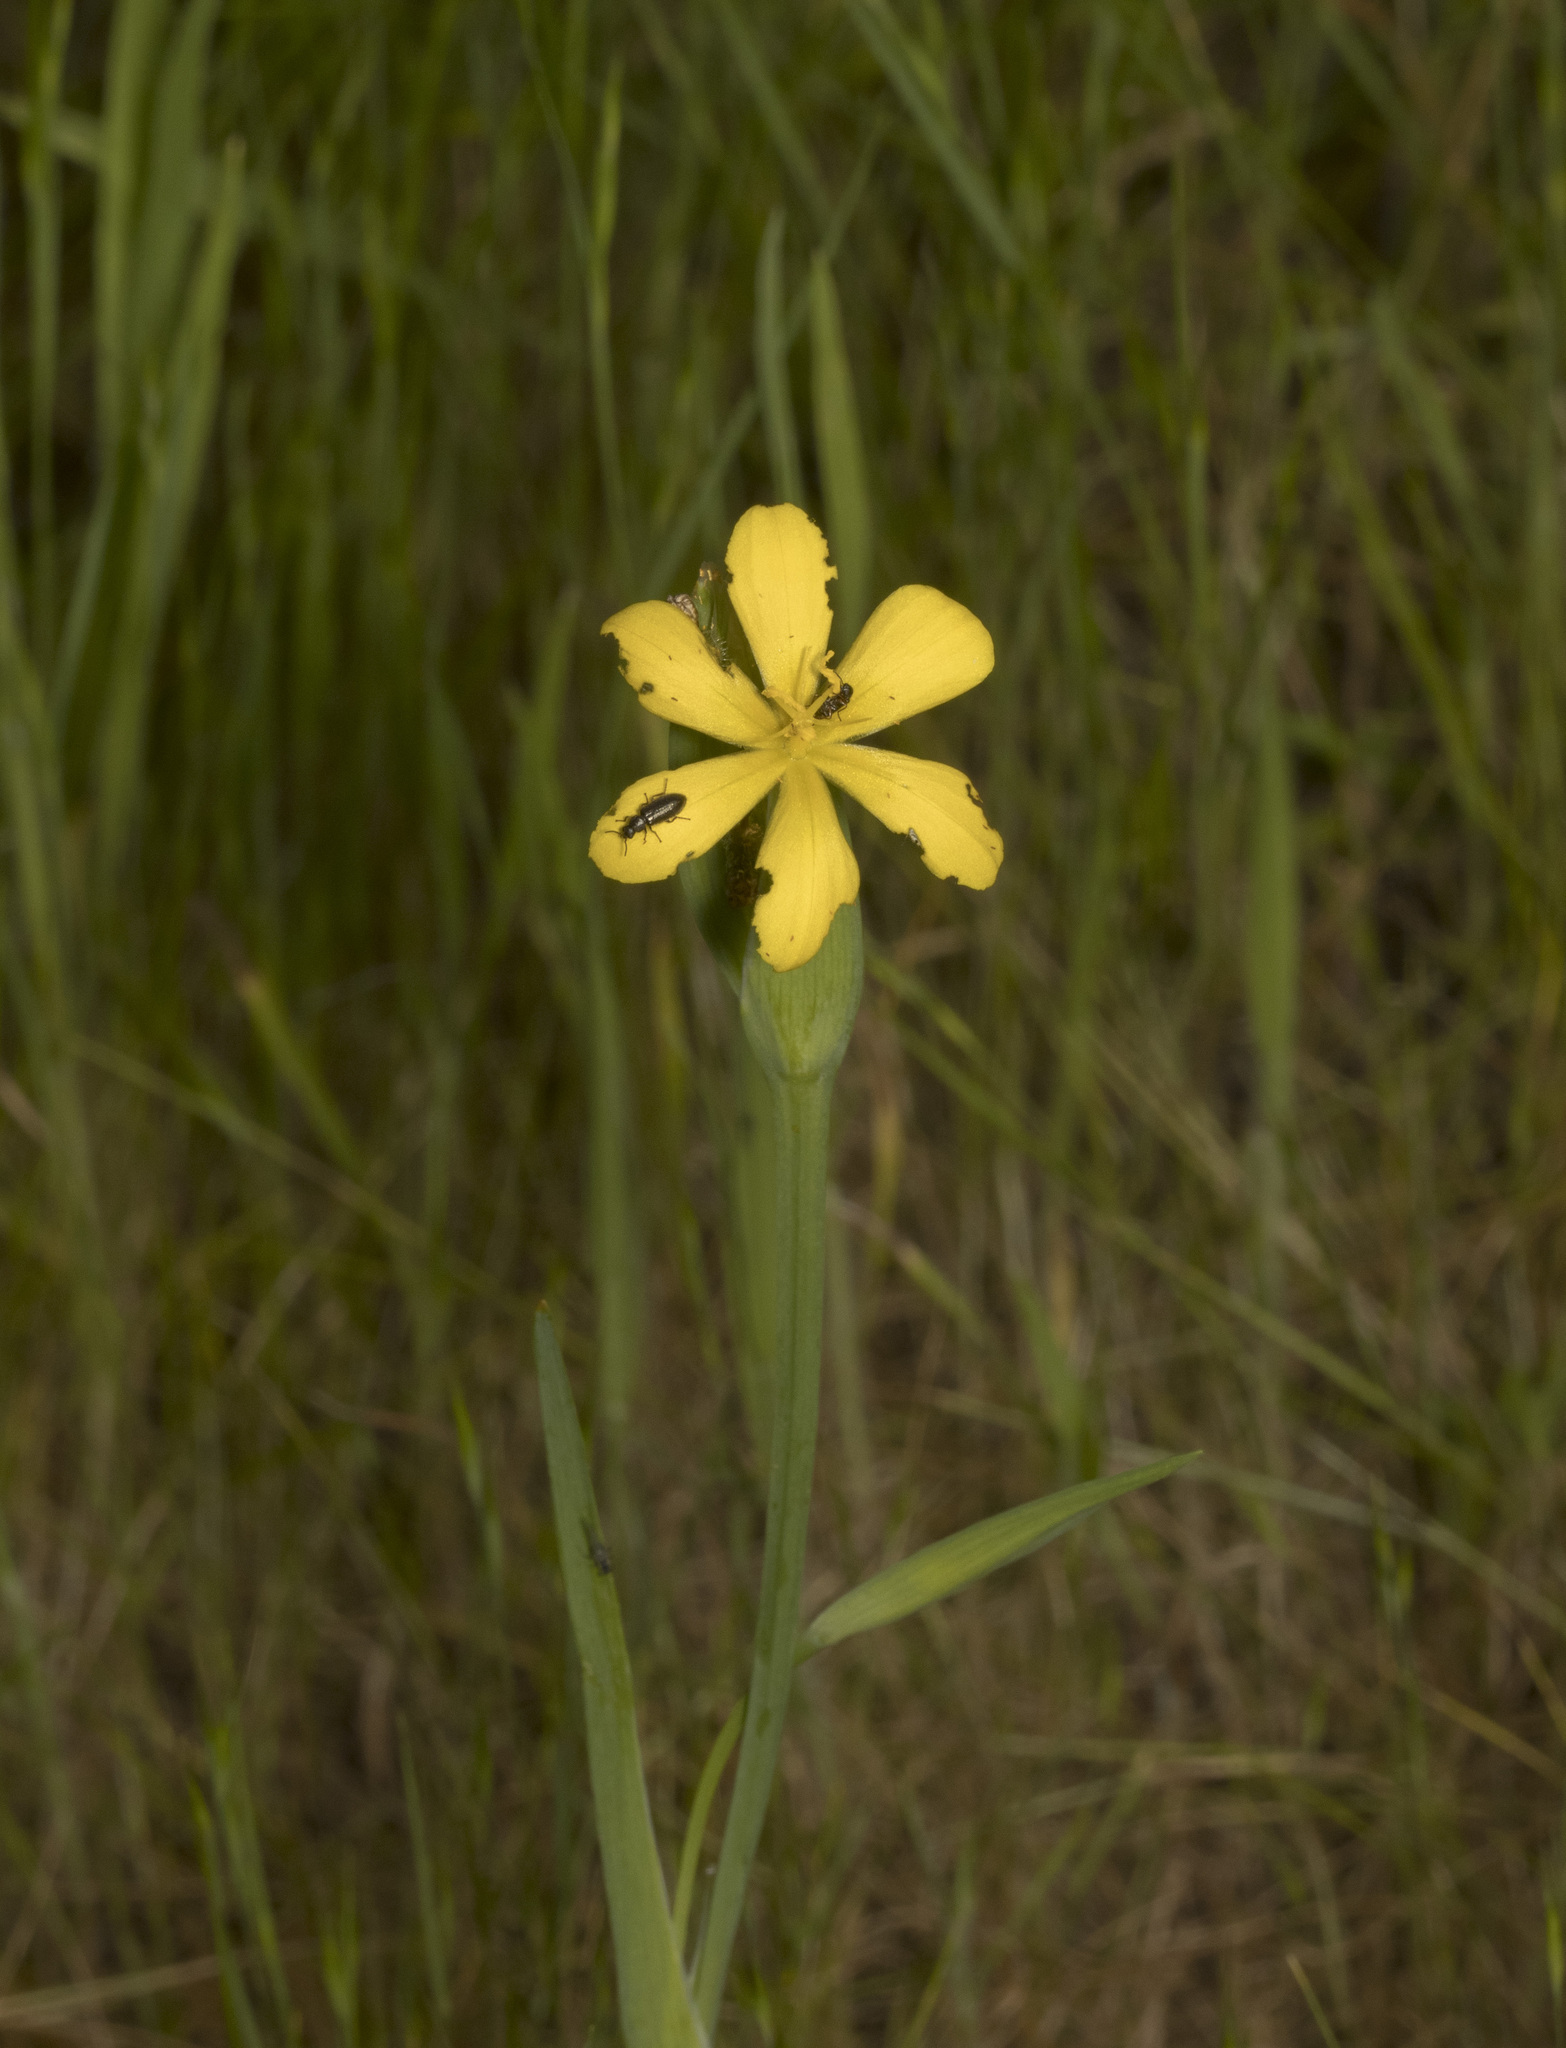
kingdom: Plantae
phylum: Tracheophyta
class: Liliopsida
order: Asparagales
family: Iridaceae
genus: Sisyrinchium
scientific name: Sisyrinchium graminifolium
